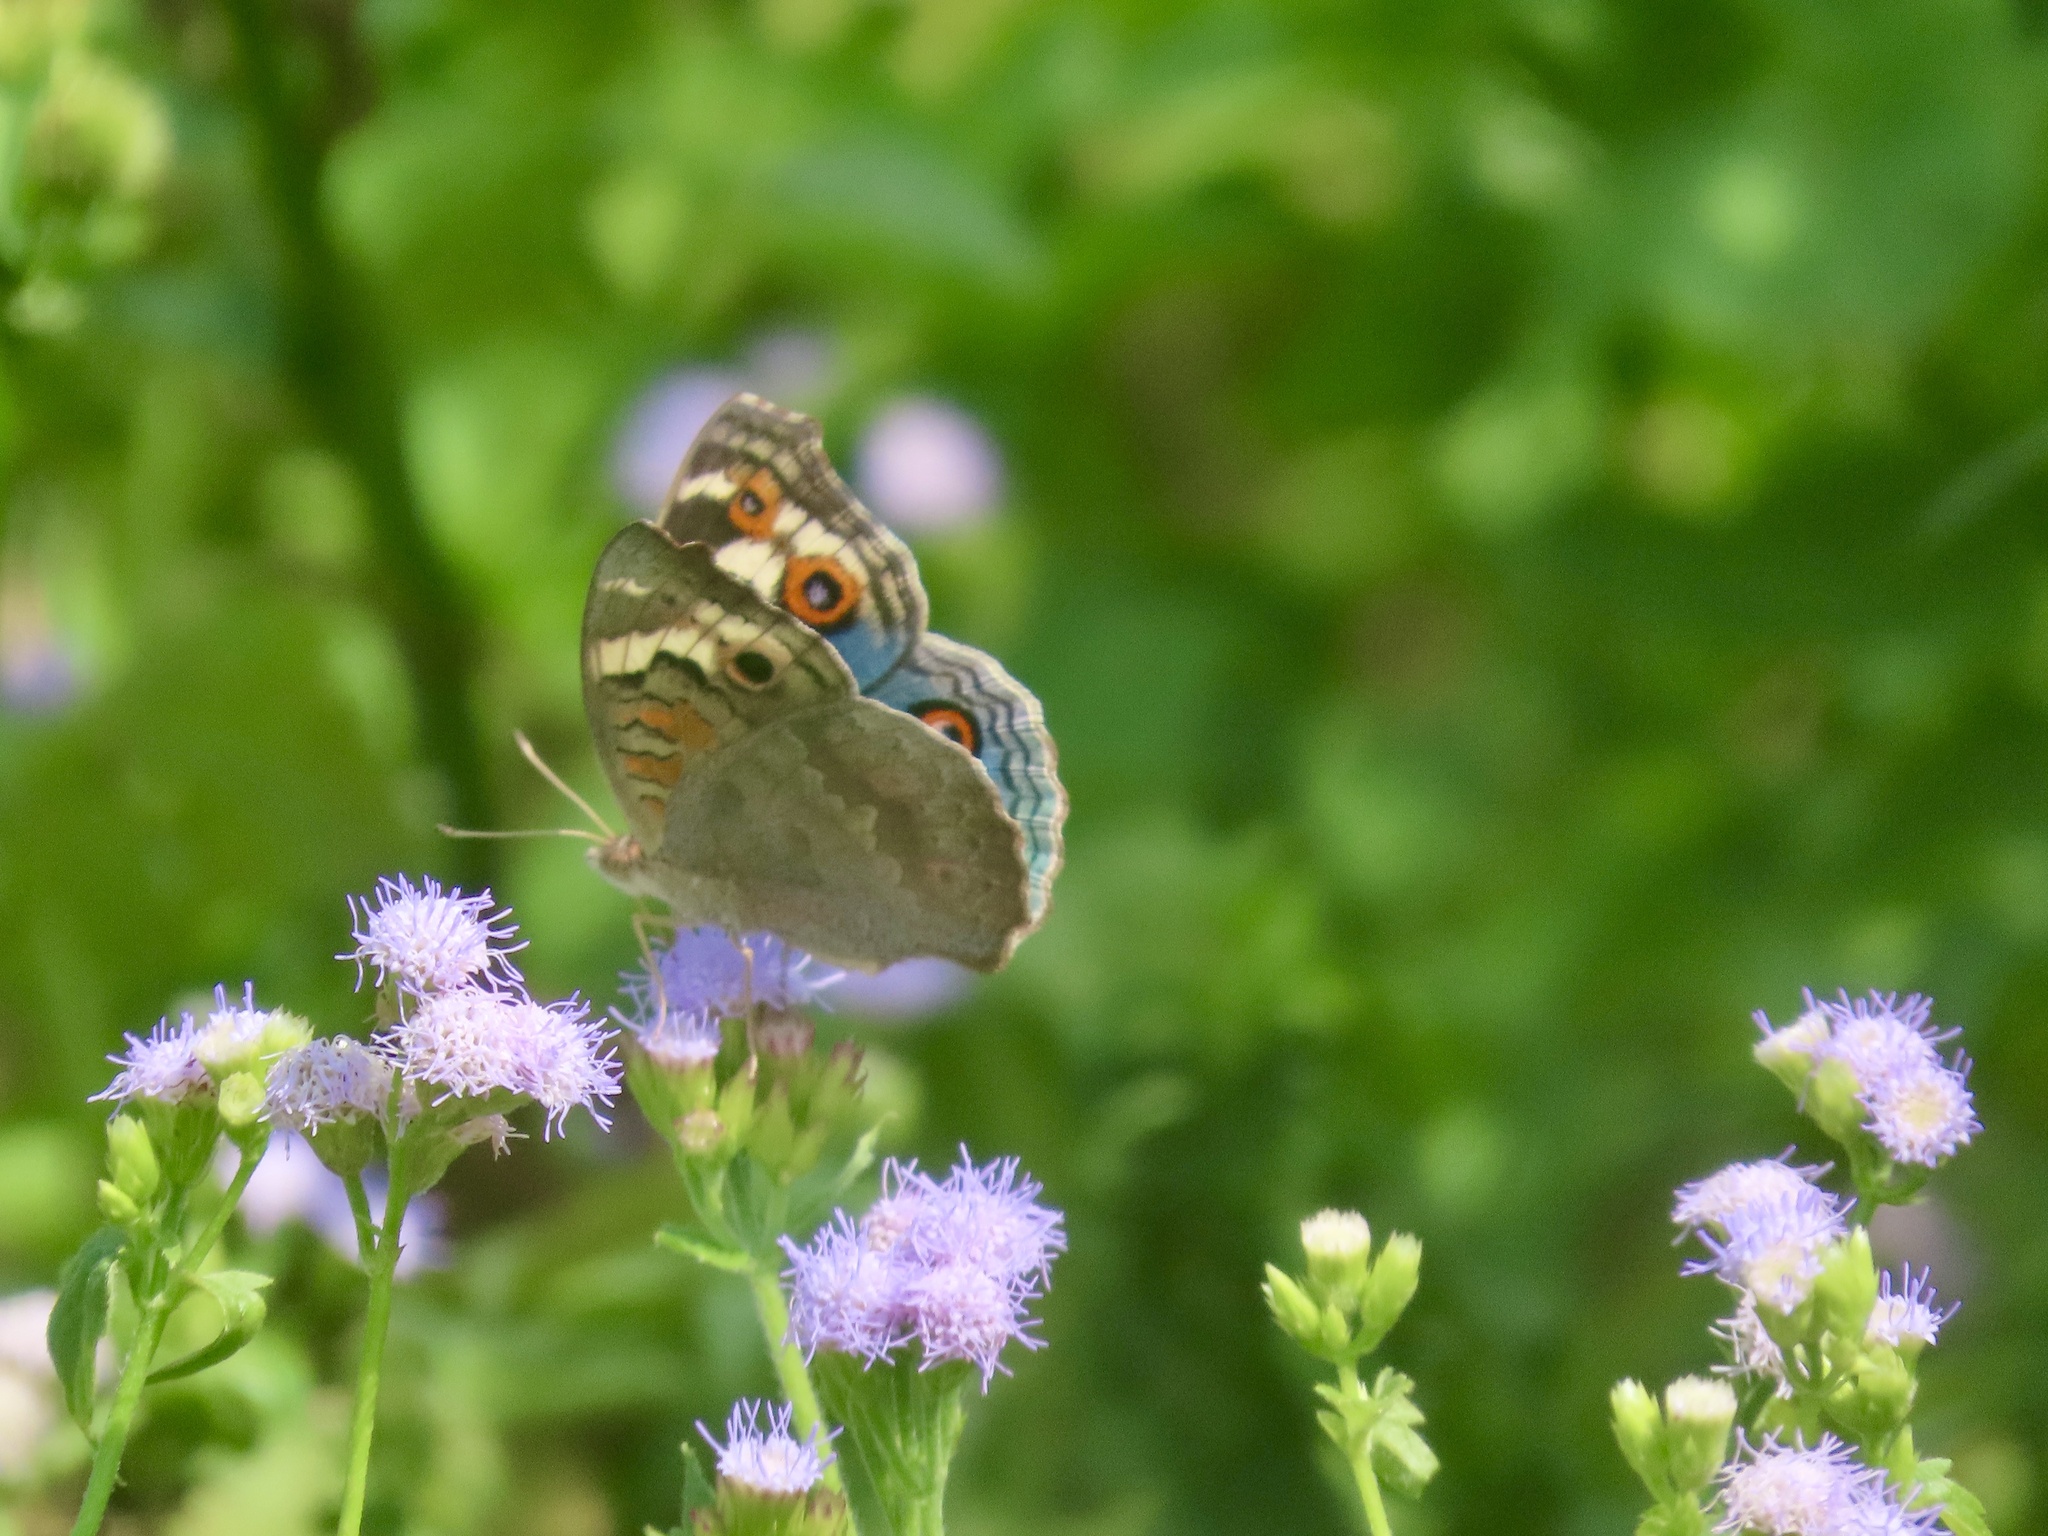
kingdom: Animalia
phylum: Arthropoda
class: Insecta
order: Lepidoptera
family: Nymphalidae
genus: Junonia
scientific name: Junonia orithya
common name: Blue pansy
